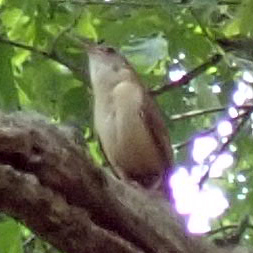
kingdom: Animalia
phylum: Chordata
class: Aves
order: Passeriformes
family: Troglodytidae
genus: Thryothorus
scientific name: Thryothorus ludovicianus
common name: Carolina wren
